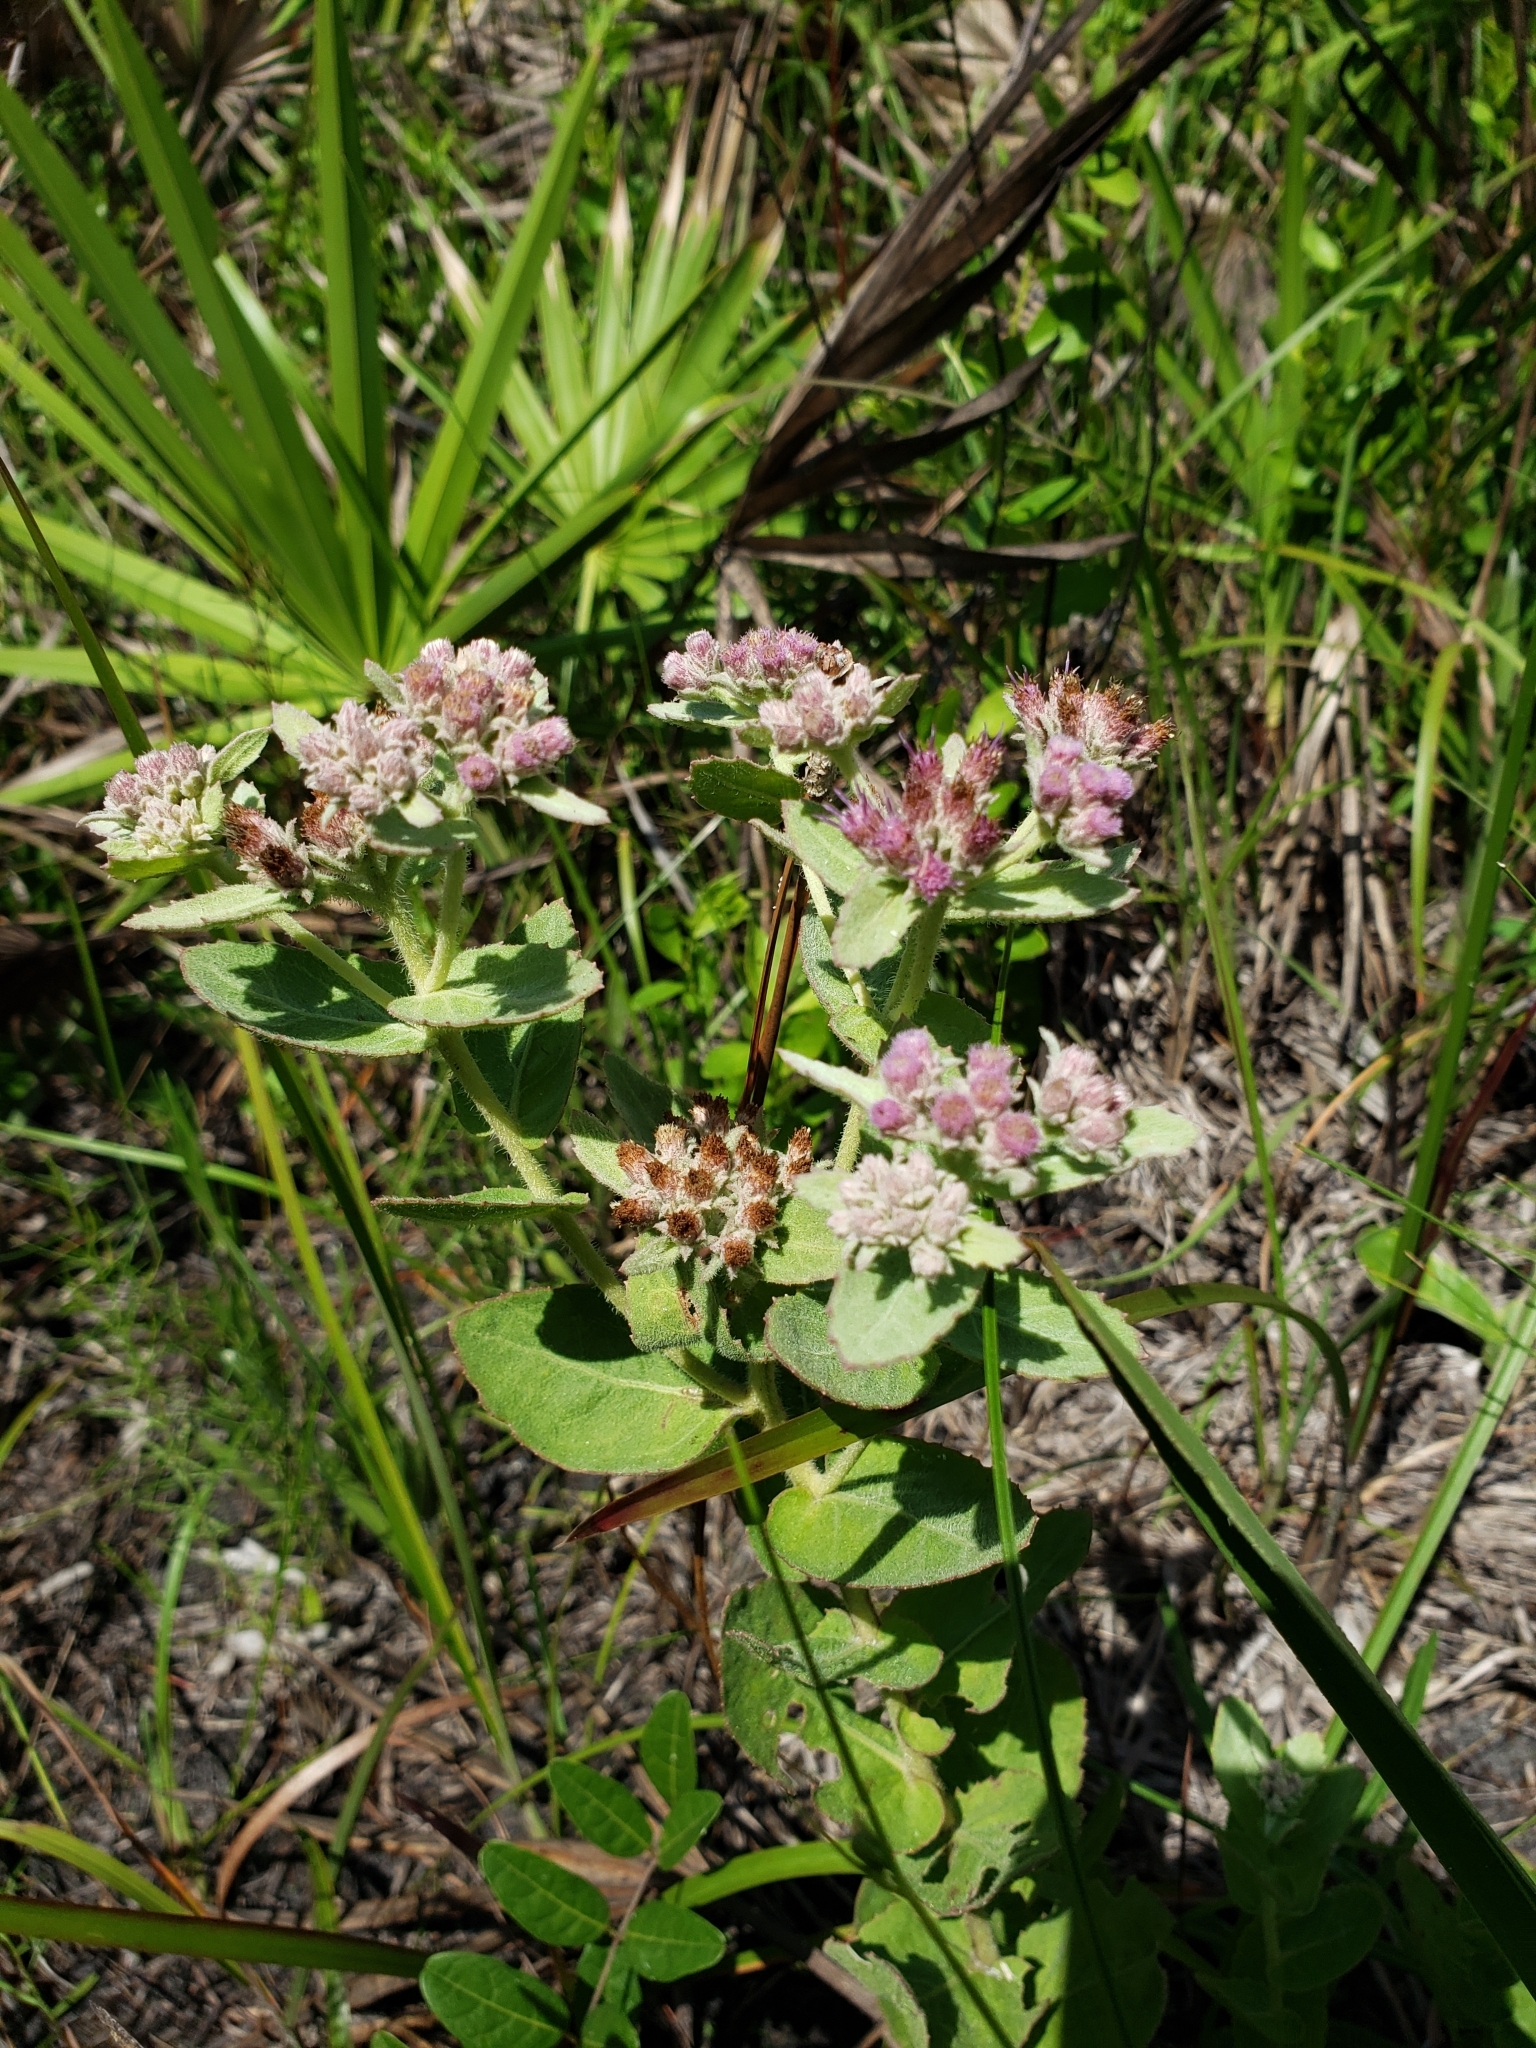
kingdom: Plantae
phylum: Tracheophyta
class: Magnoliopsida
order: Asterales
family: Asteraceae
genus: Pluchea
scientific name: Pluchea baccharis
